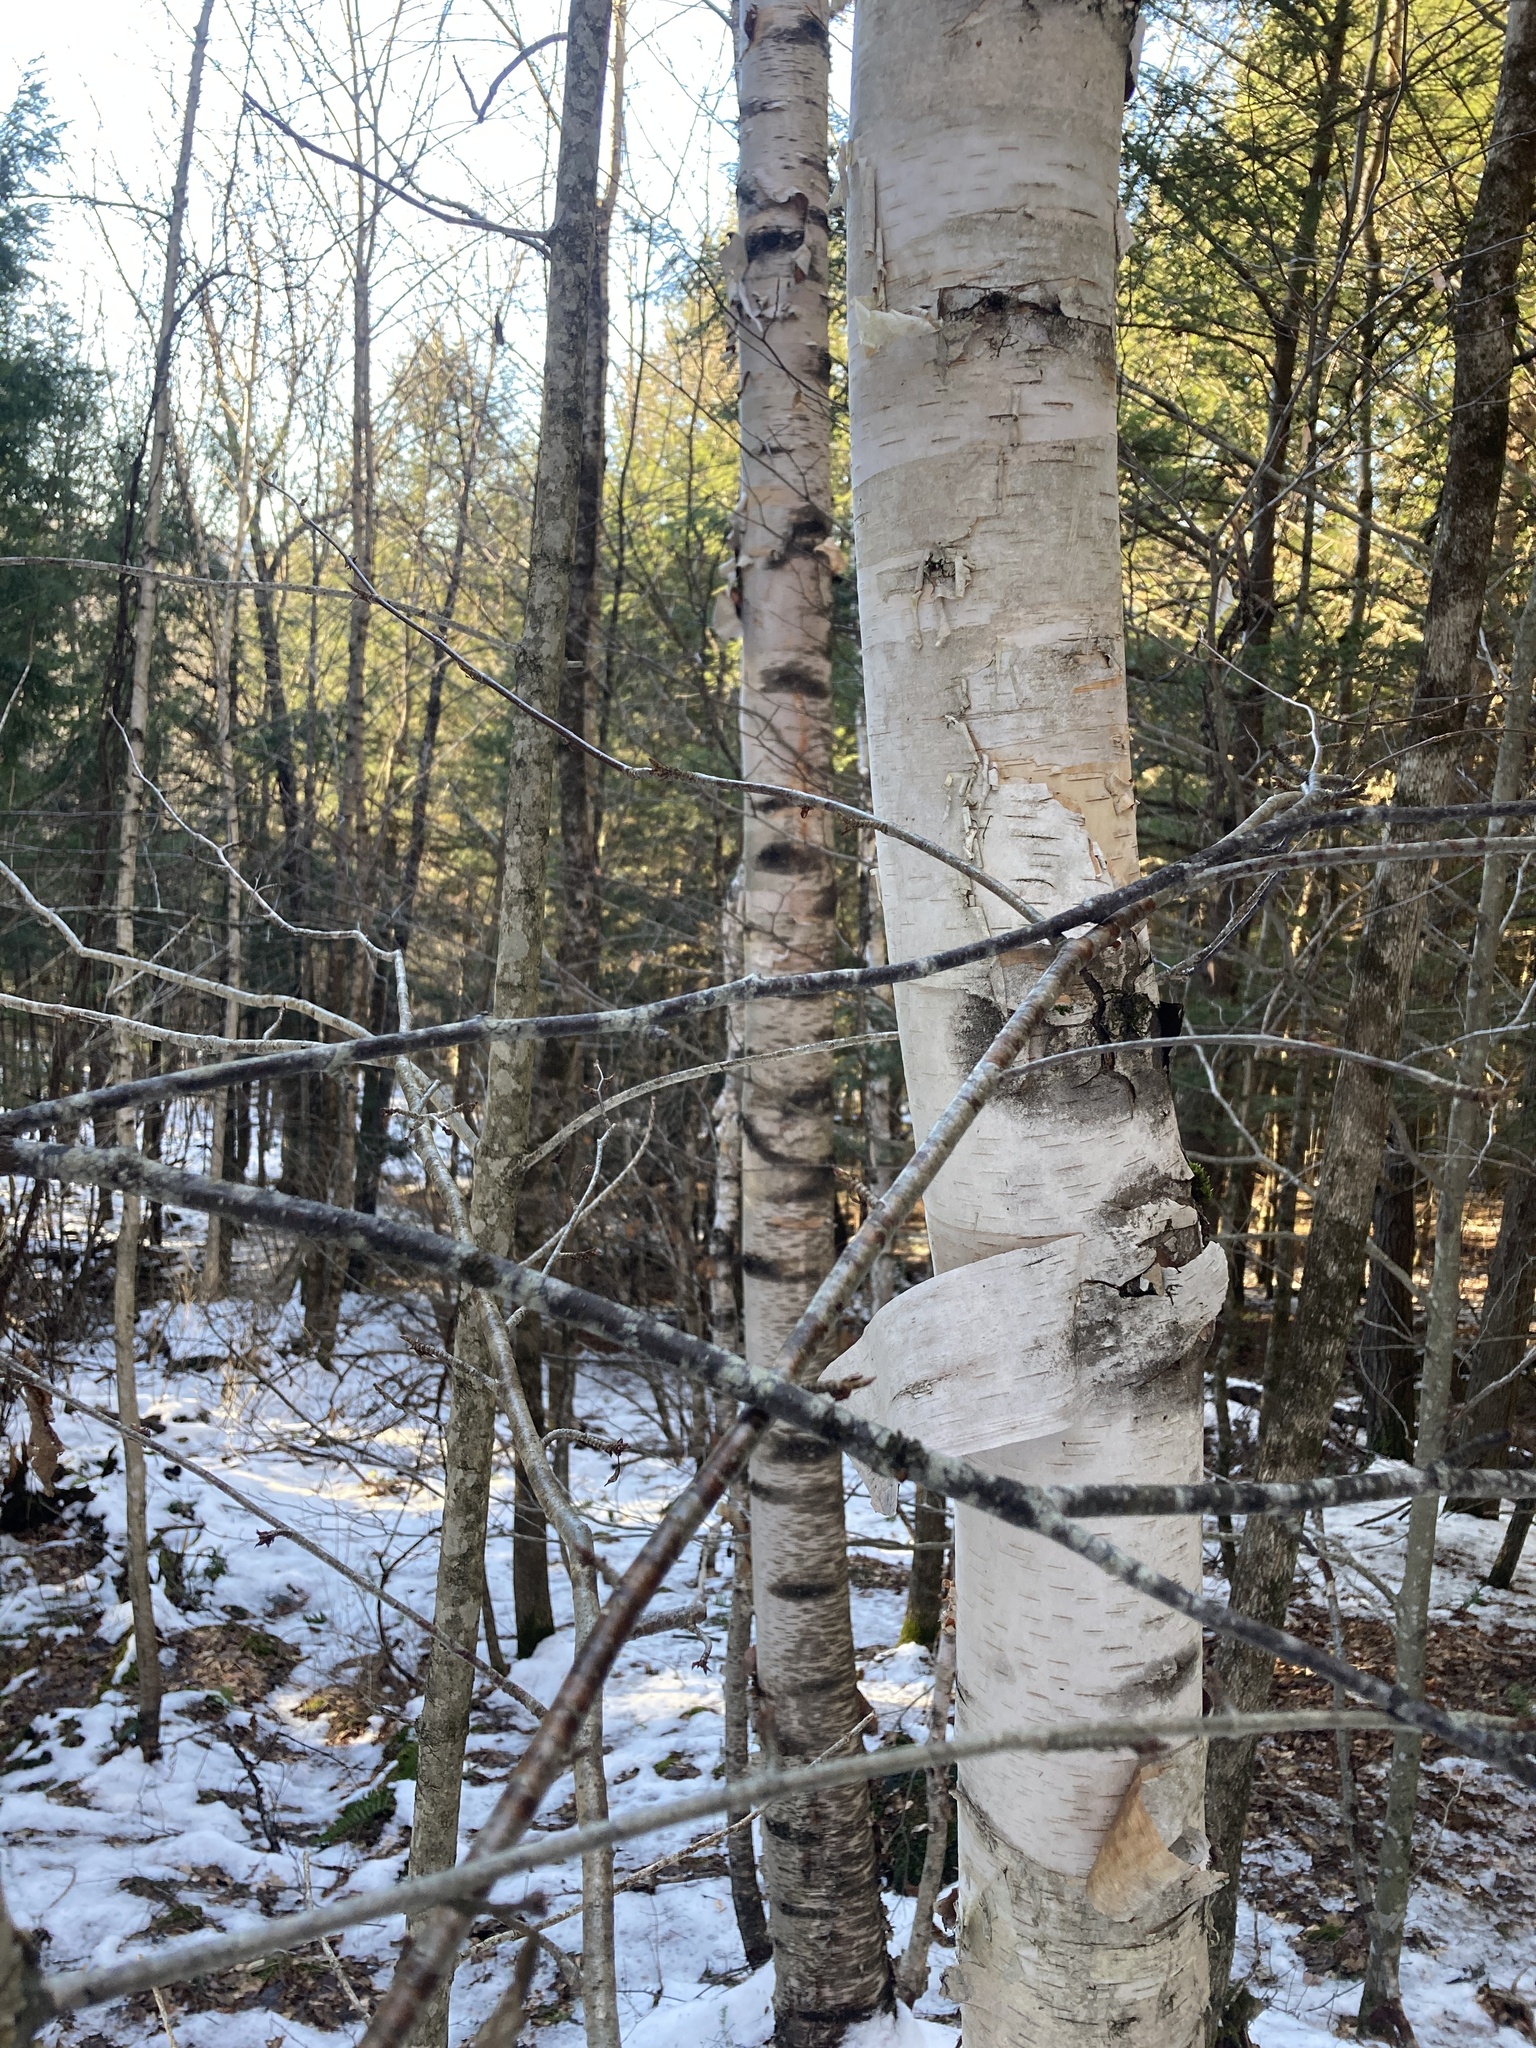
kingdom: Plantae
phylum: Tracheophyta
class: Magnoliopsida
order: Fagales
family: Betulaceae
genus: Betula
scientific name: Betula papyrifera
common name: Paper birch
